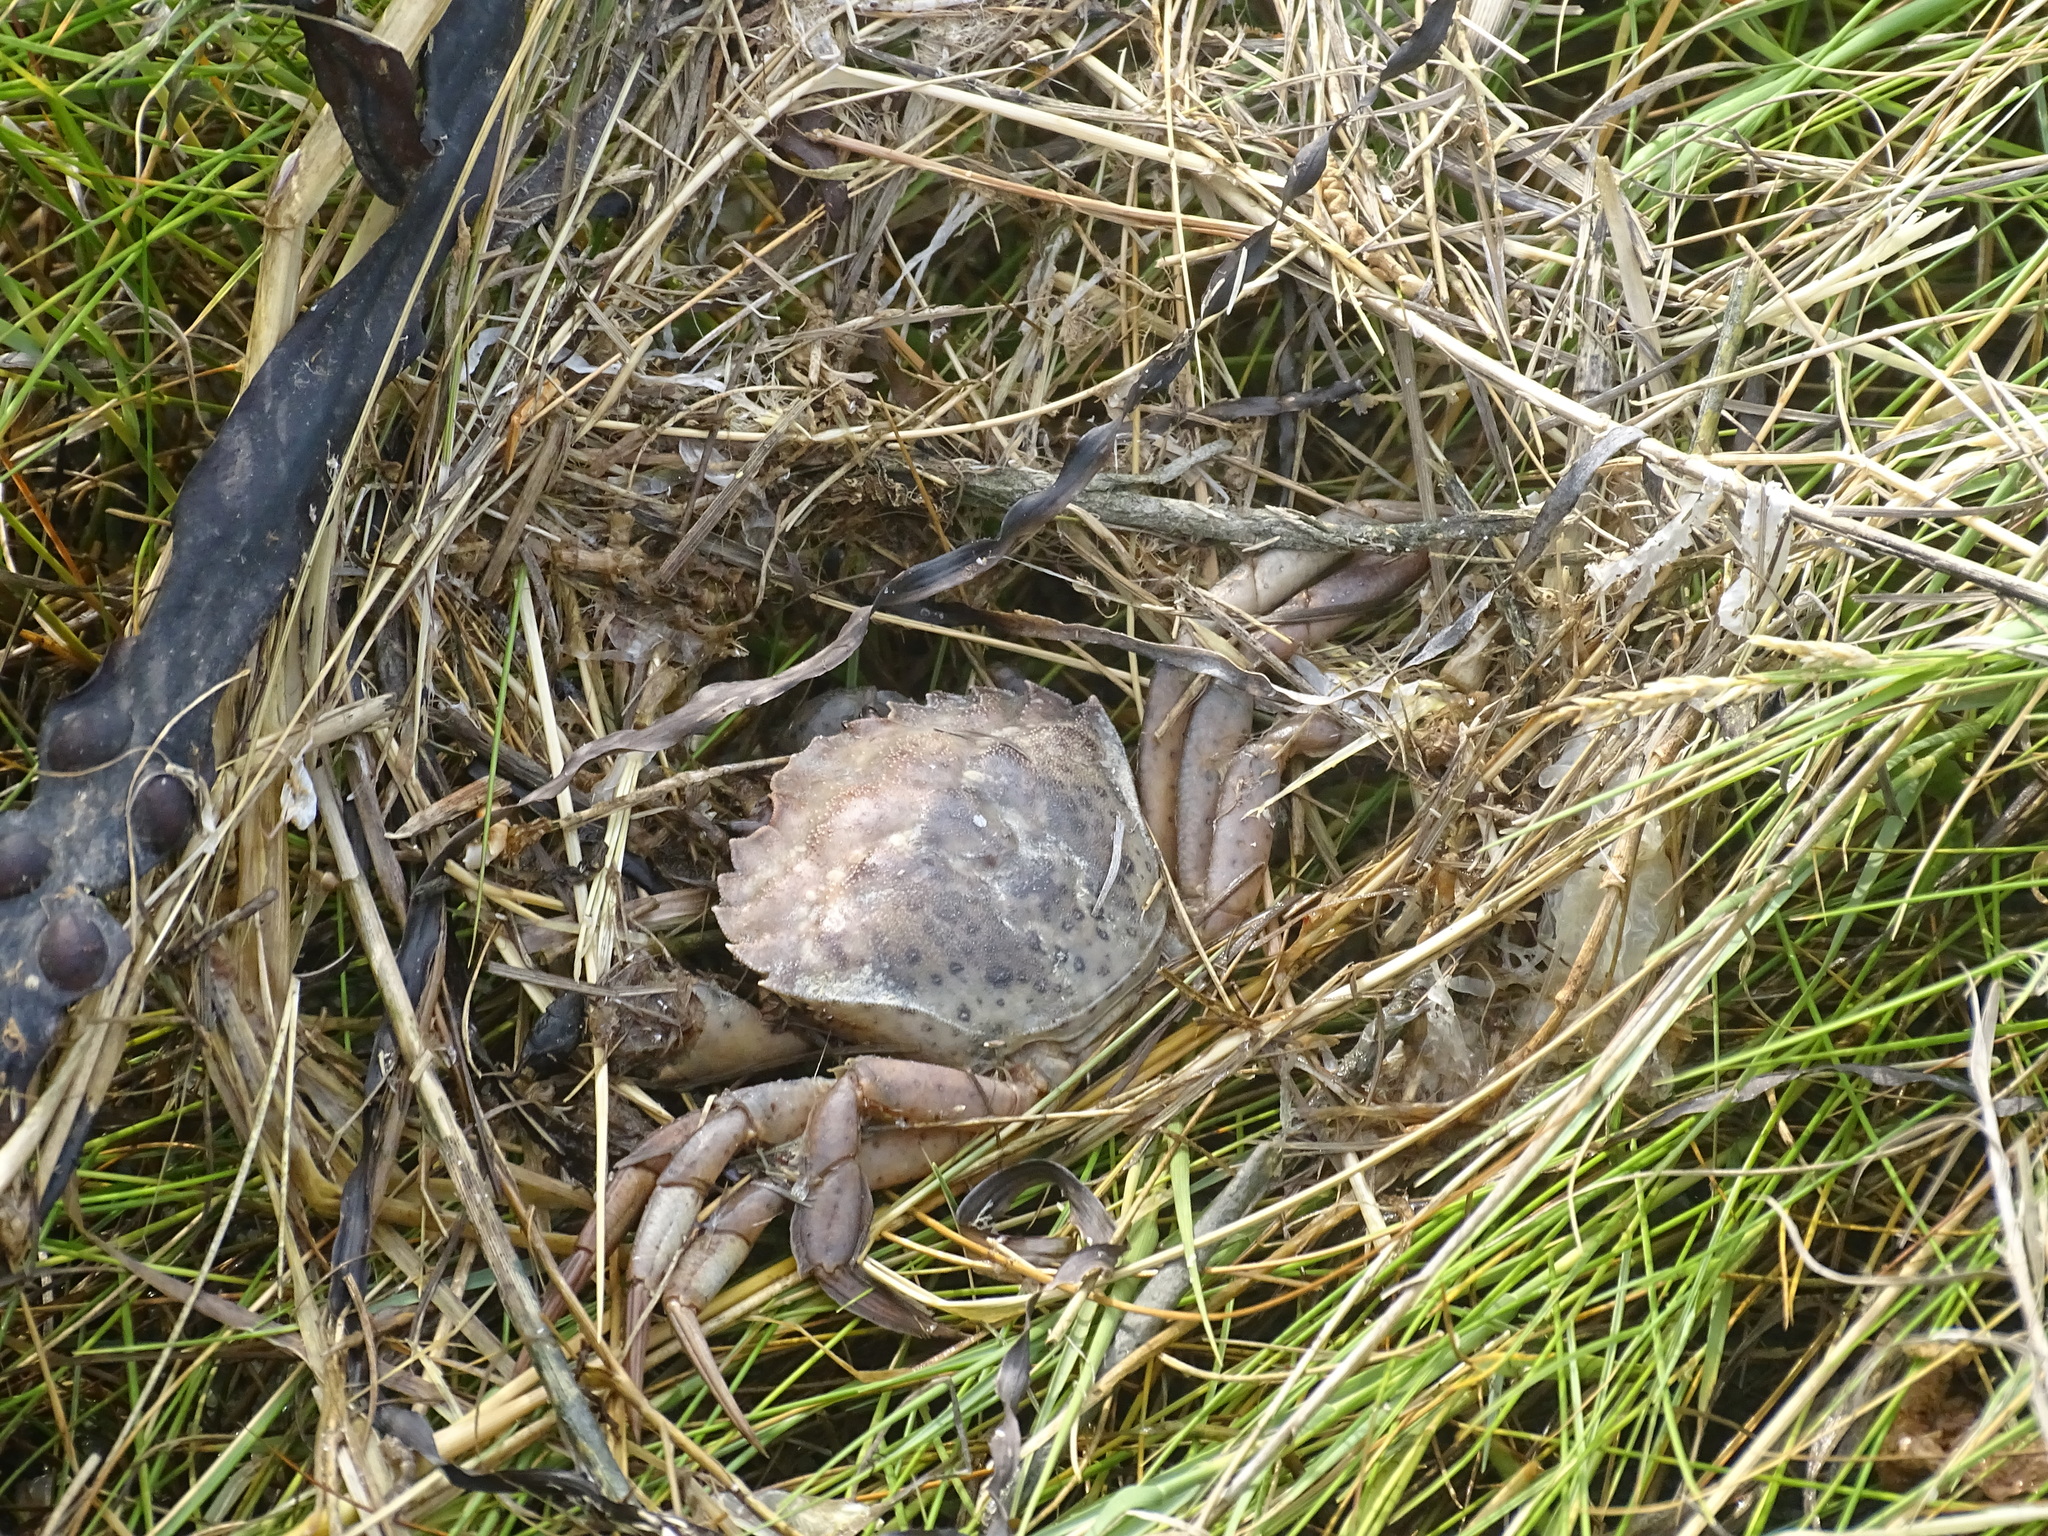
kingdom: Animalia
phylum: Arthropoda
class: Malacostraca
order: Decapoda
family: Carcinidae
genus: Carcinus
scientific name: Carcinus maenas
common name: European green crab
